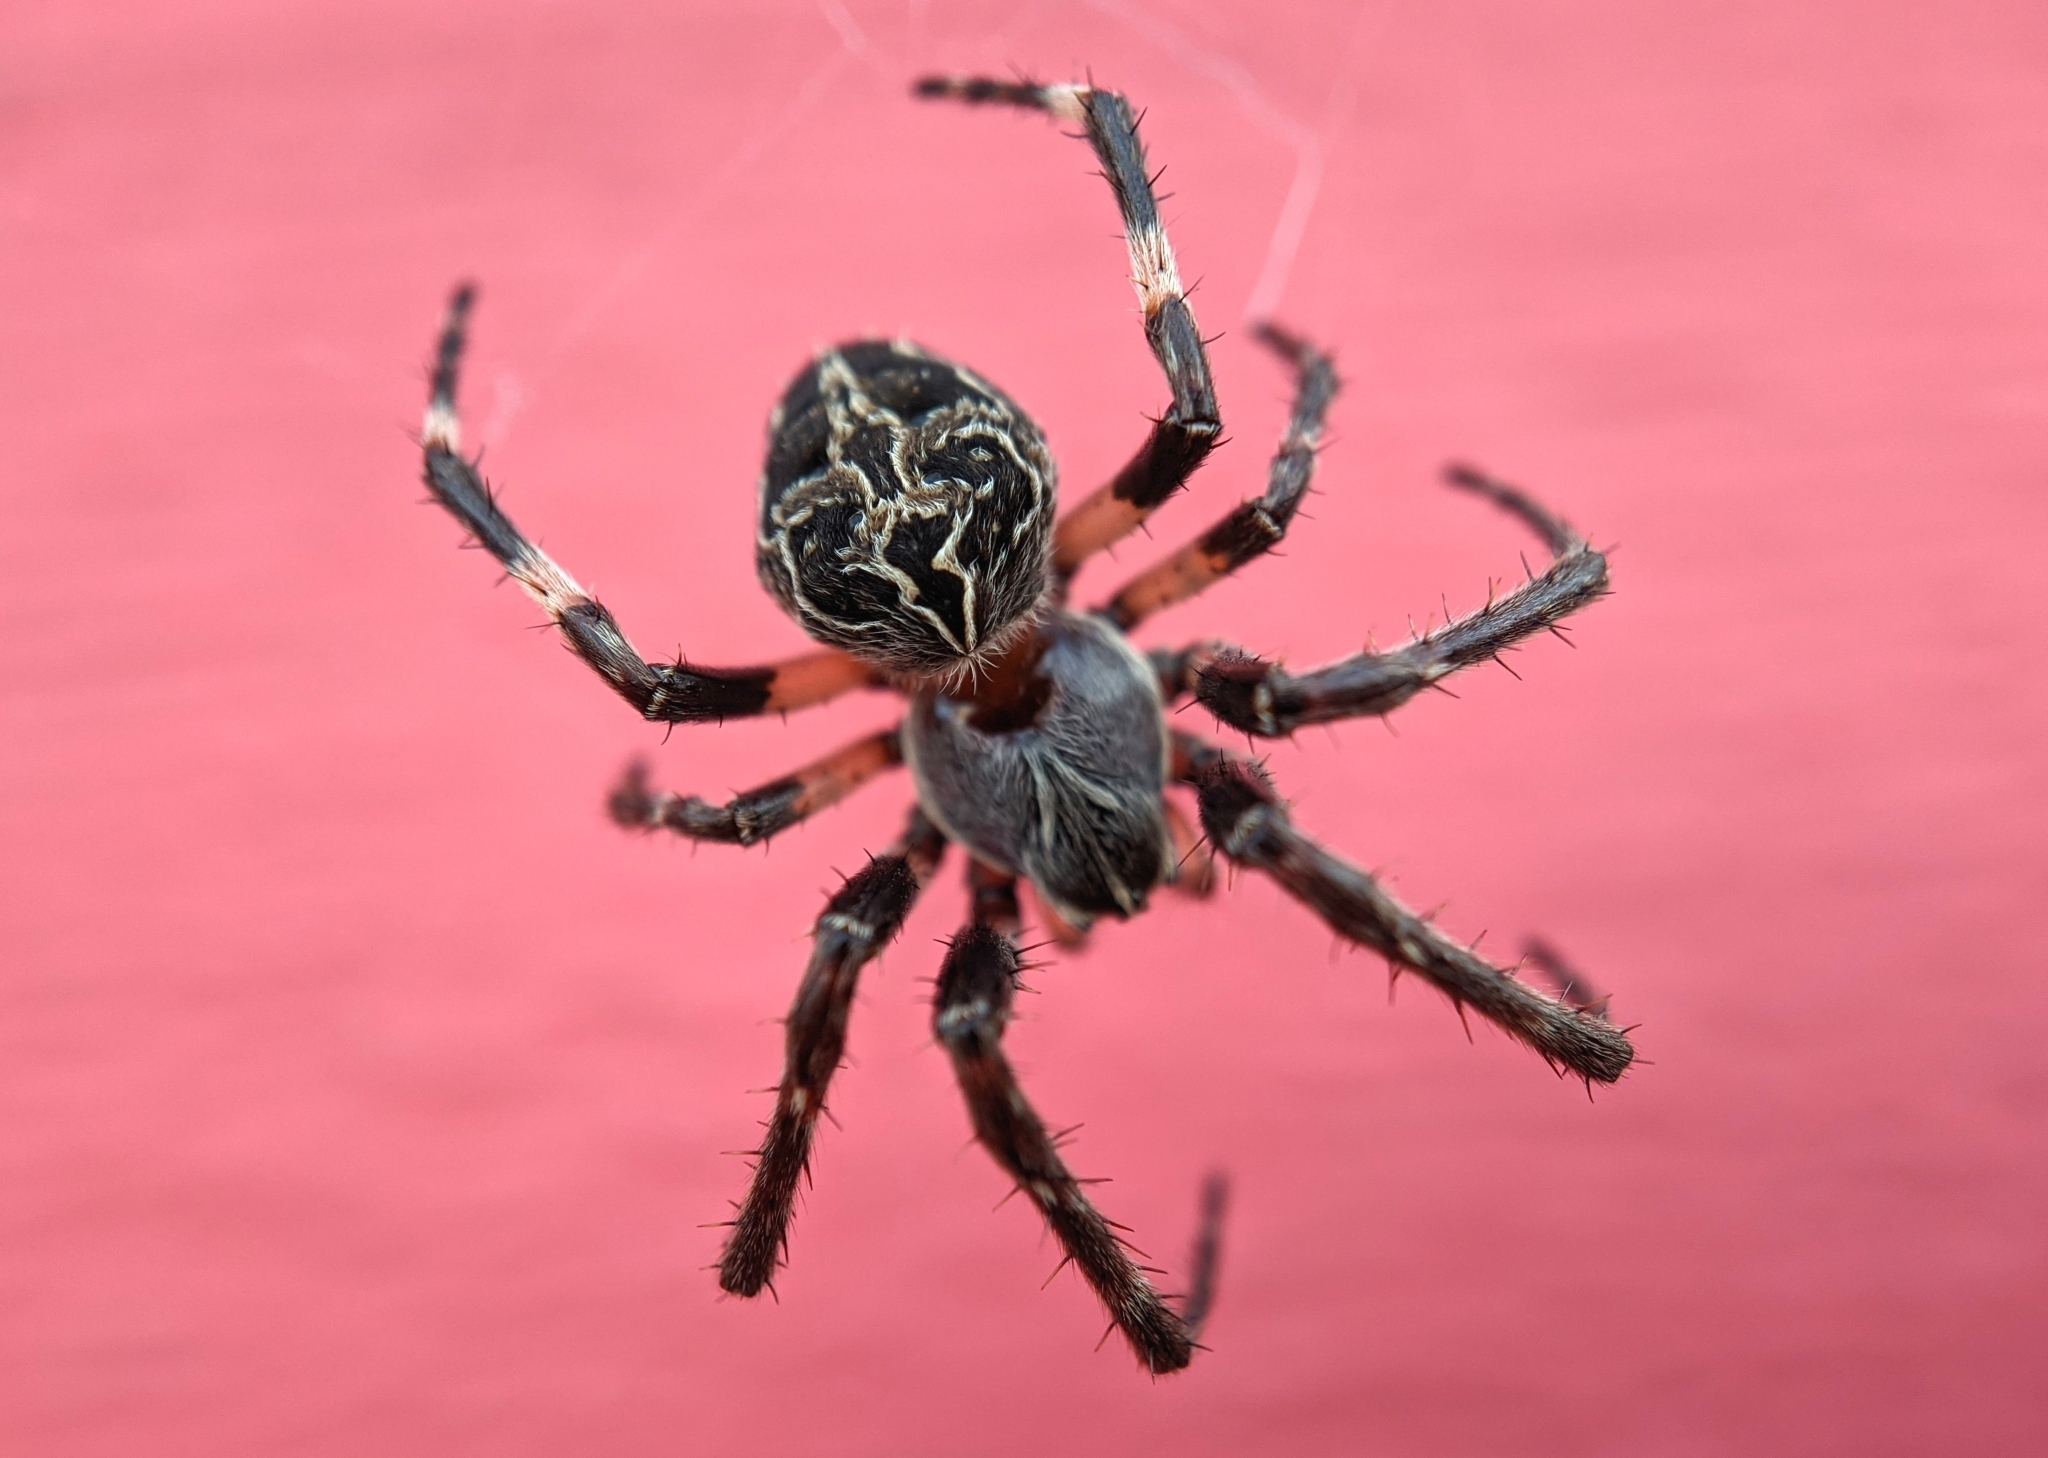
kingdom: Animalia
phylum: Arthropoda
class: Arachnida
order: Araneae
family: Araneidae
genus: Larinioides
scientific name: Larinioides sclopetarius
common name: Bridge orbweaver
